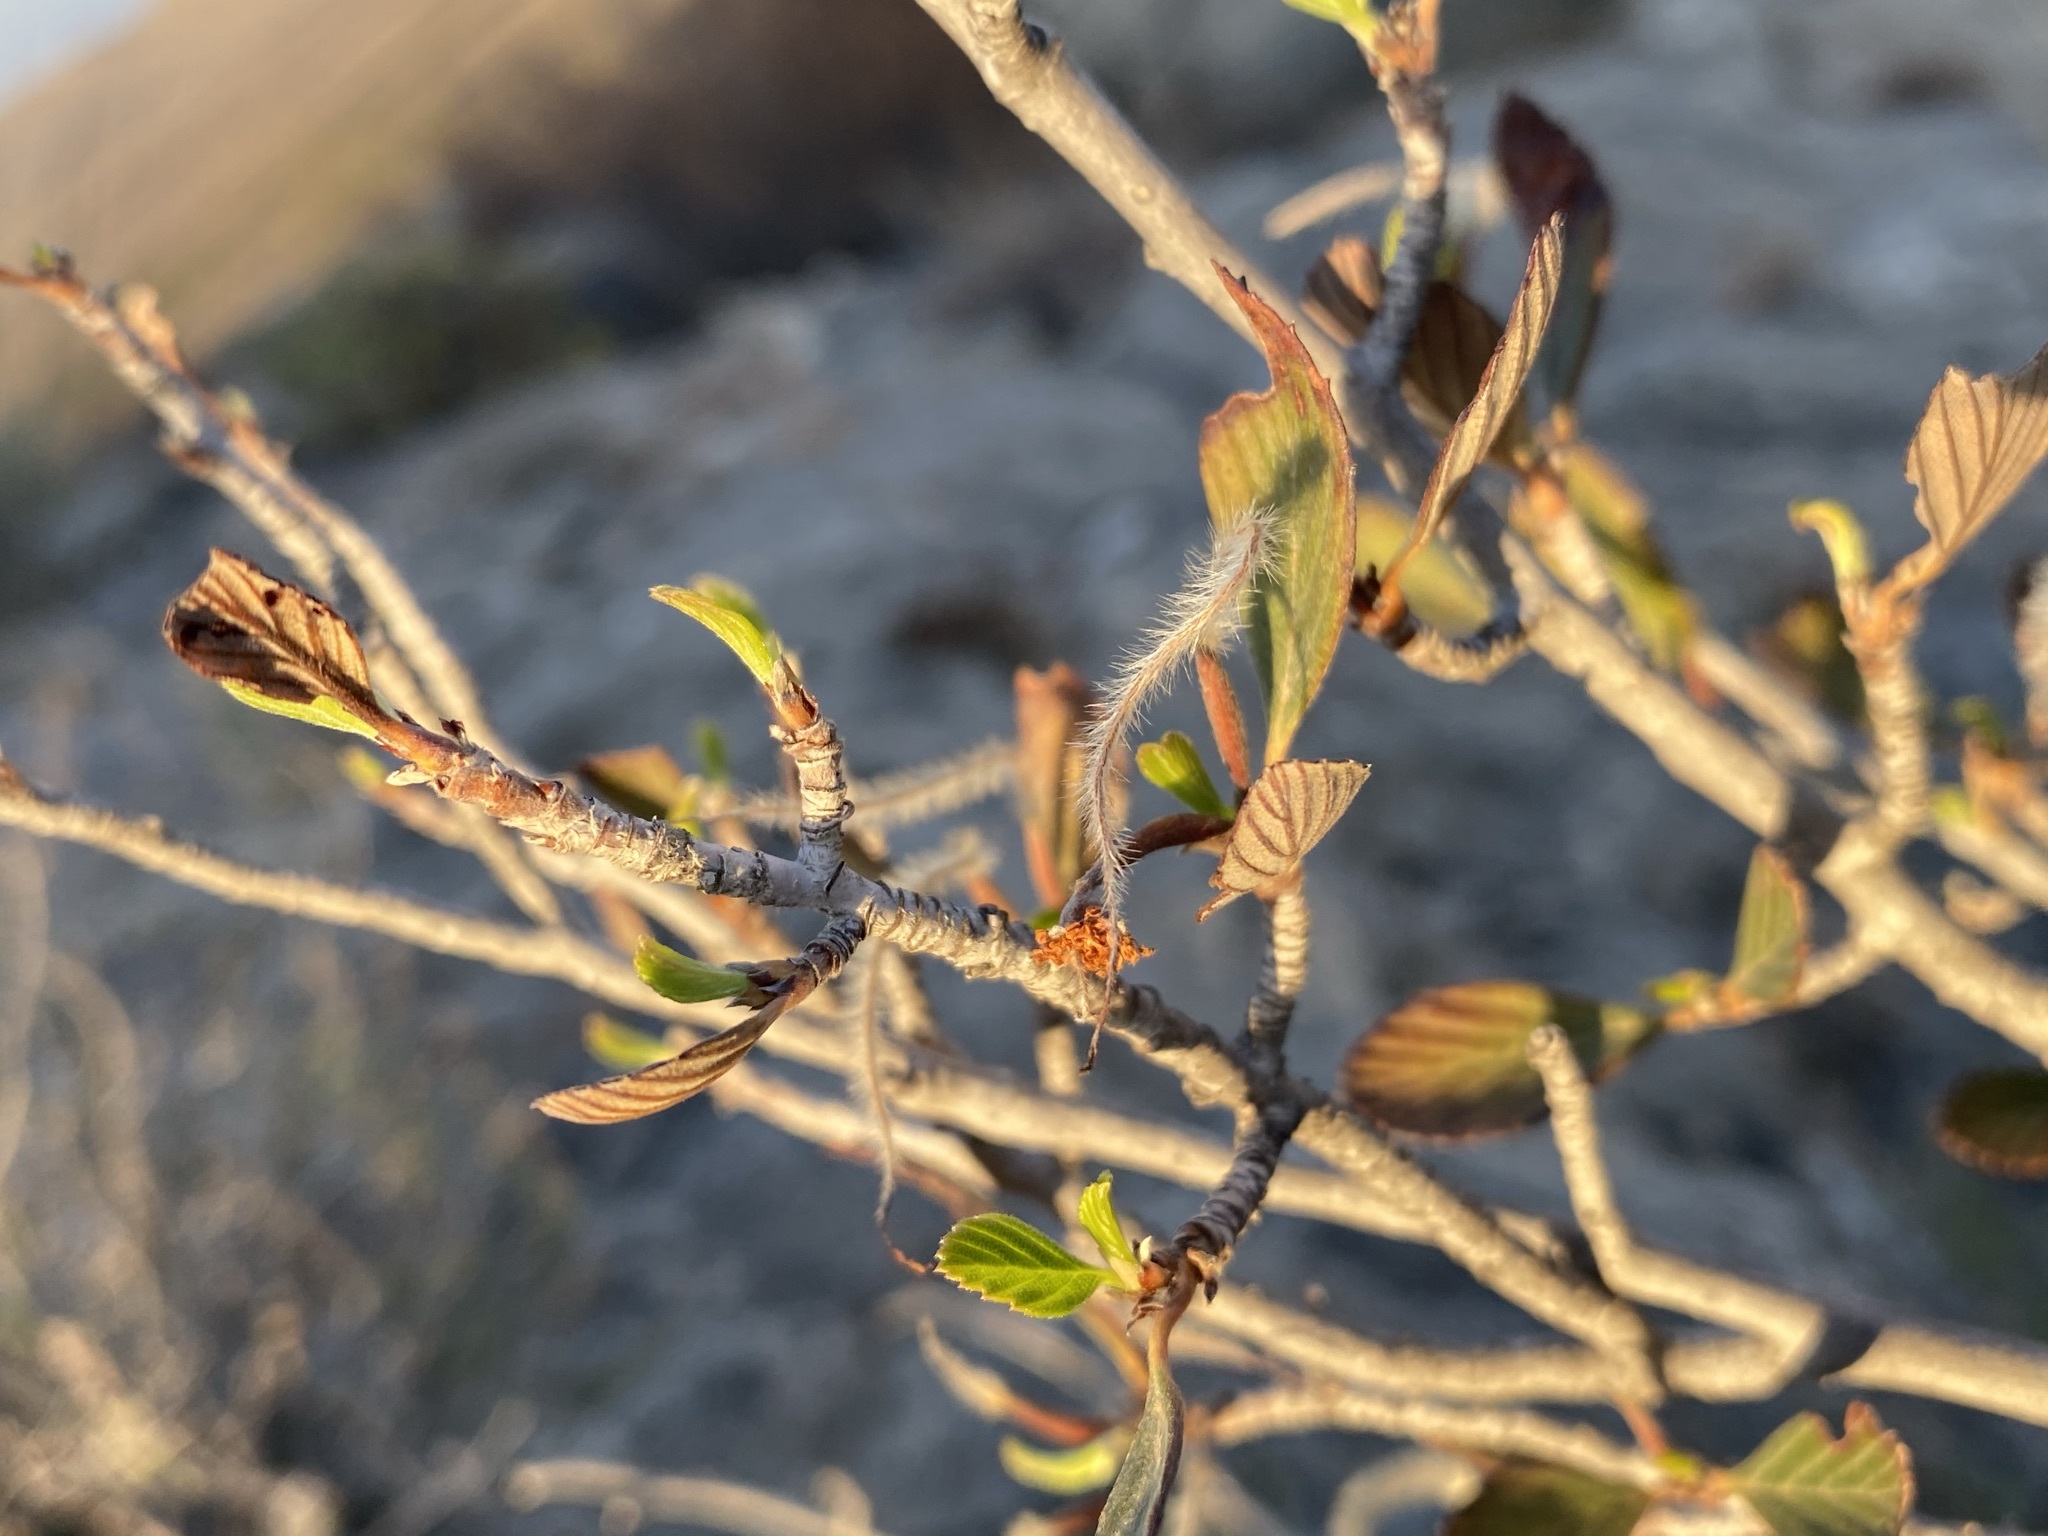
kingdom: Plantae
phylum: Tracheophyta
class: Magnoliopsida
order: Rosales
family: Rosaceae
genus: Cercocarpus
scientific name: Cercocarpus montanus
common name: Alder-leaf cercocarpus
